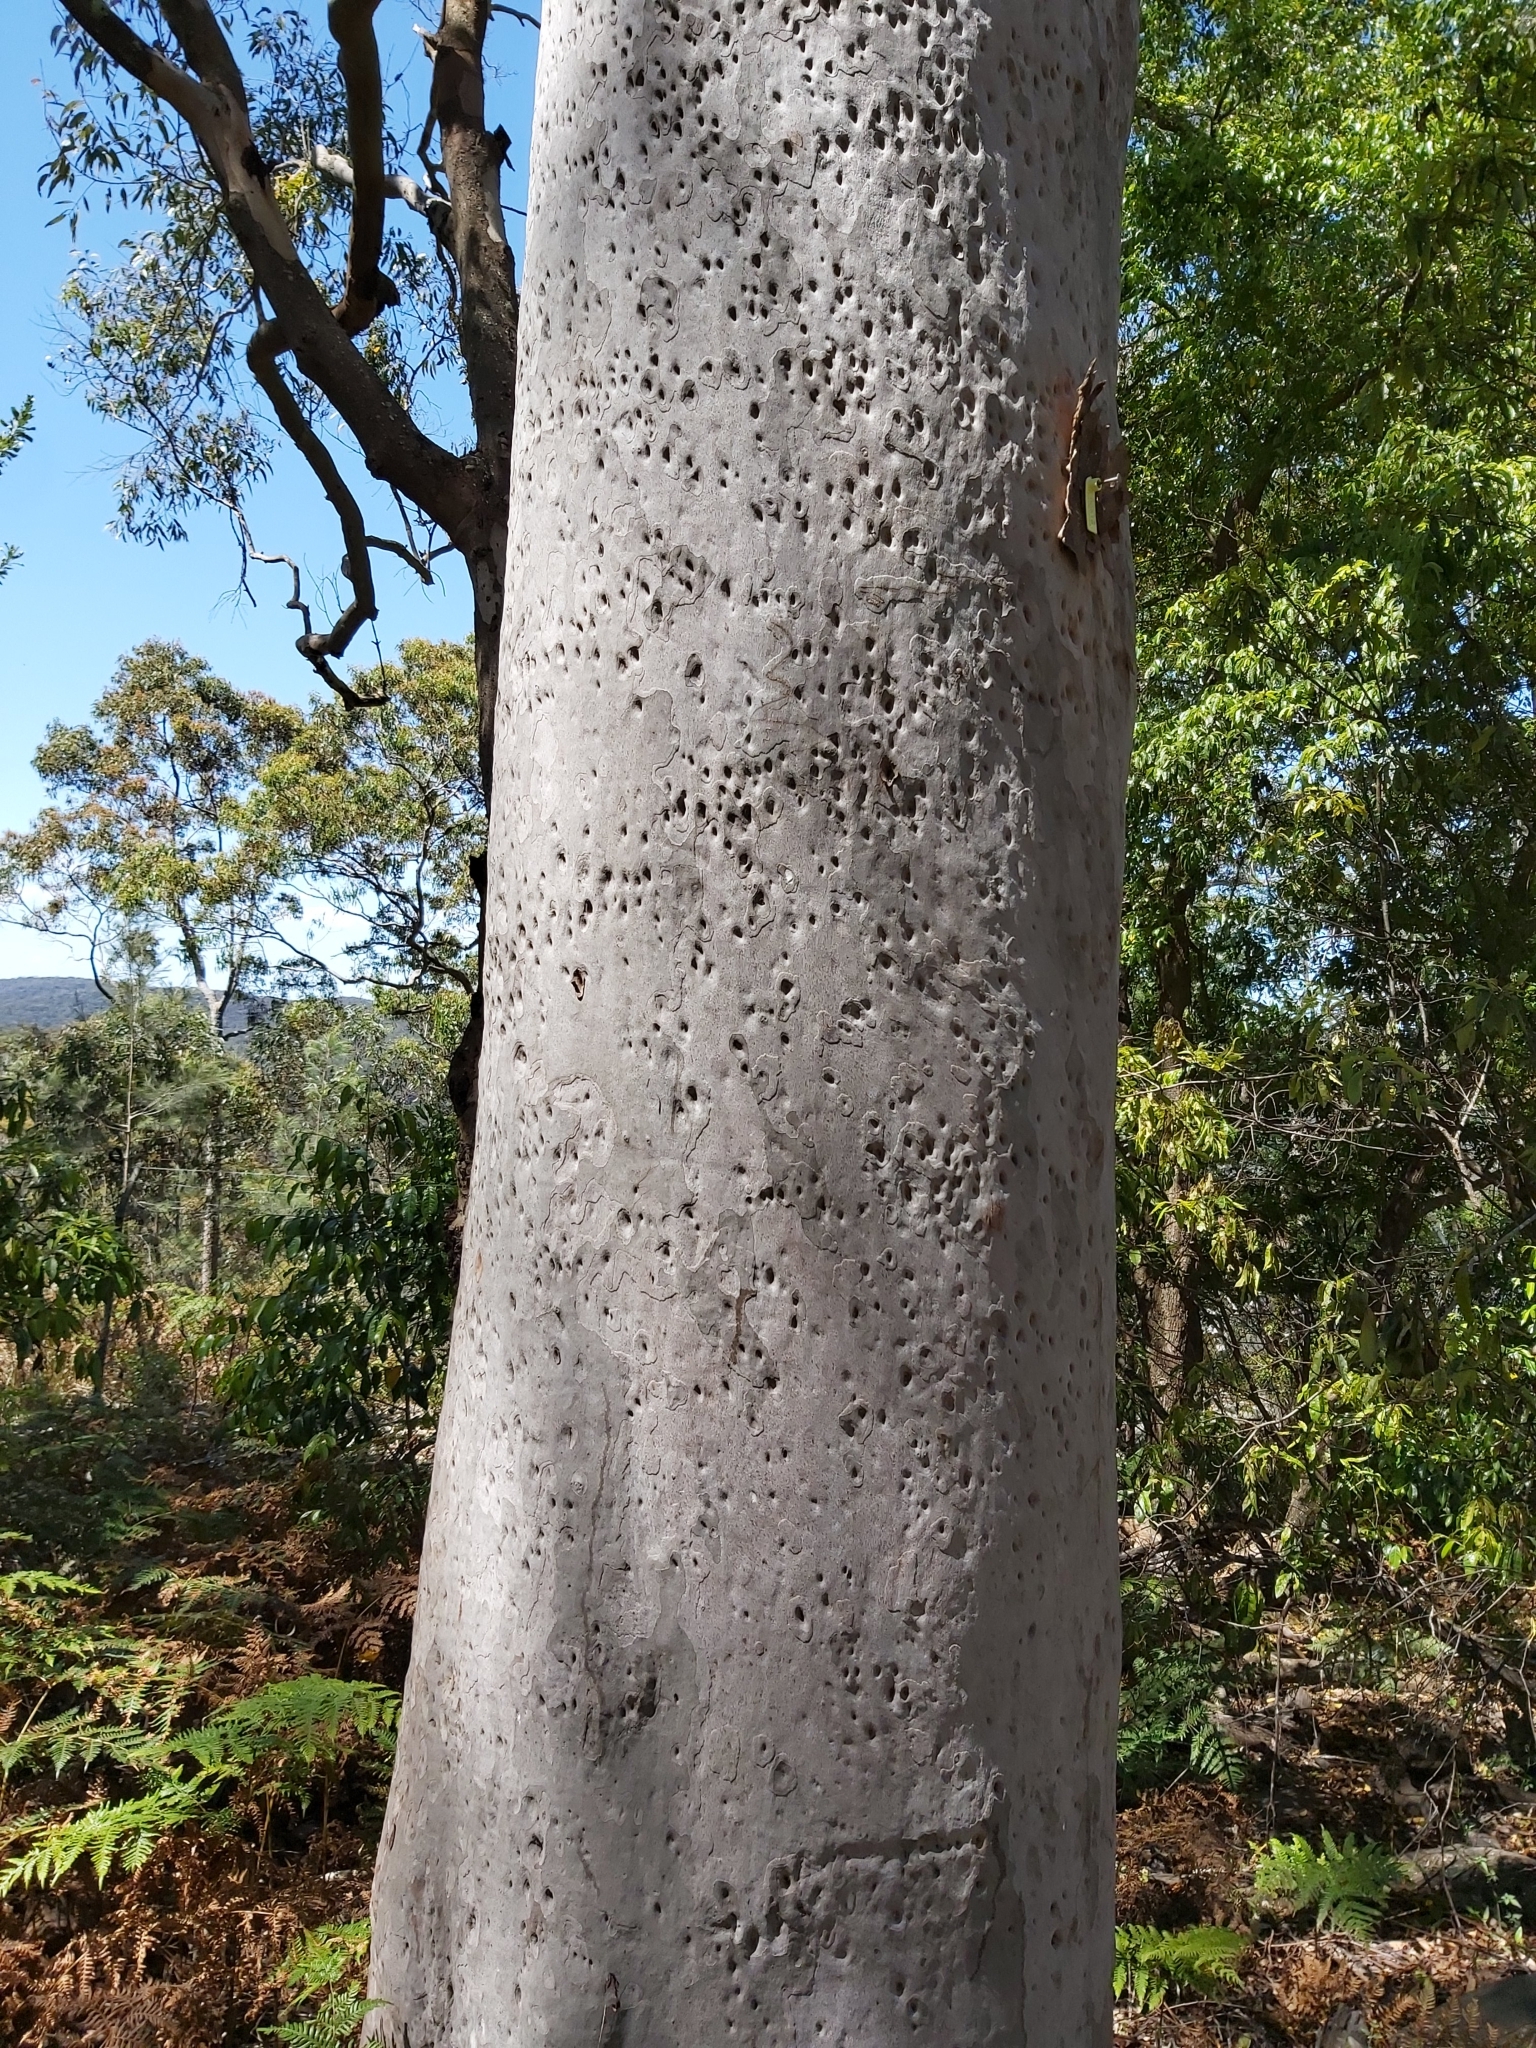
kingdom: Plantae
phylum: Tracheophyta
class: Magnoliopsida
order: Myrtales
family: Myrtaceae
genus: Angophora
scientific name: Angophora costata
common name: Gum myrtle
